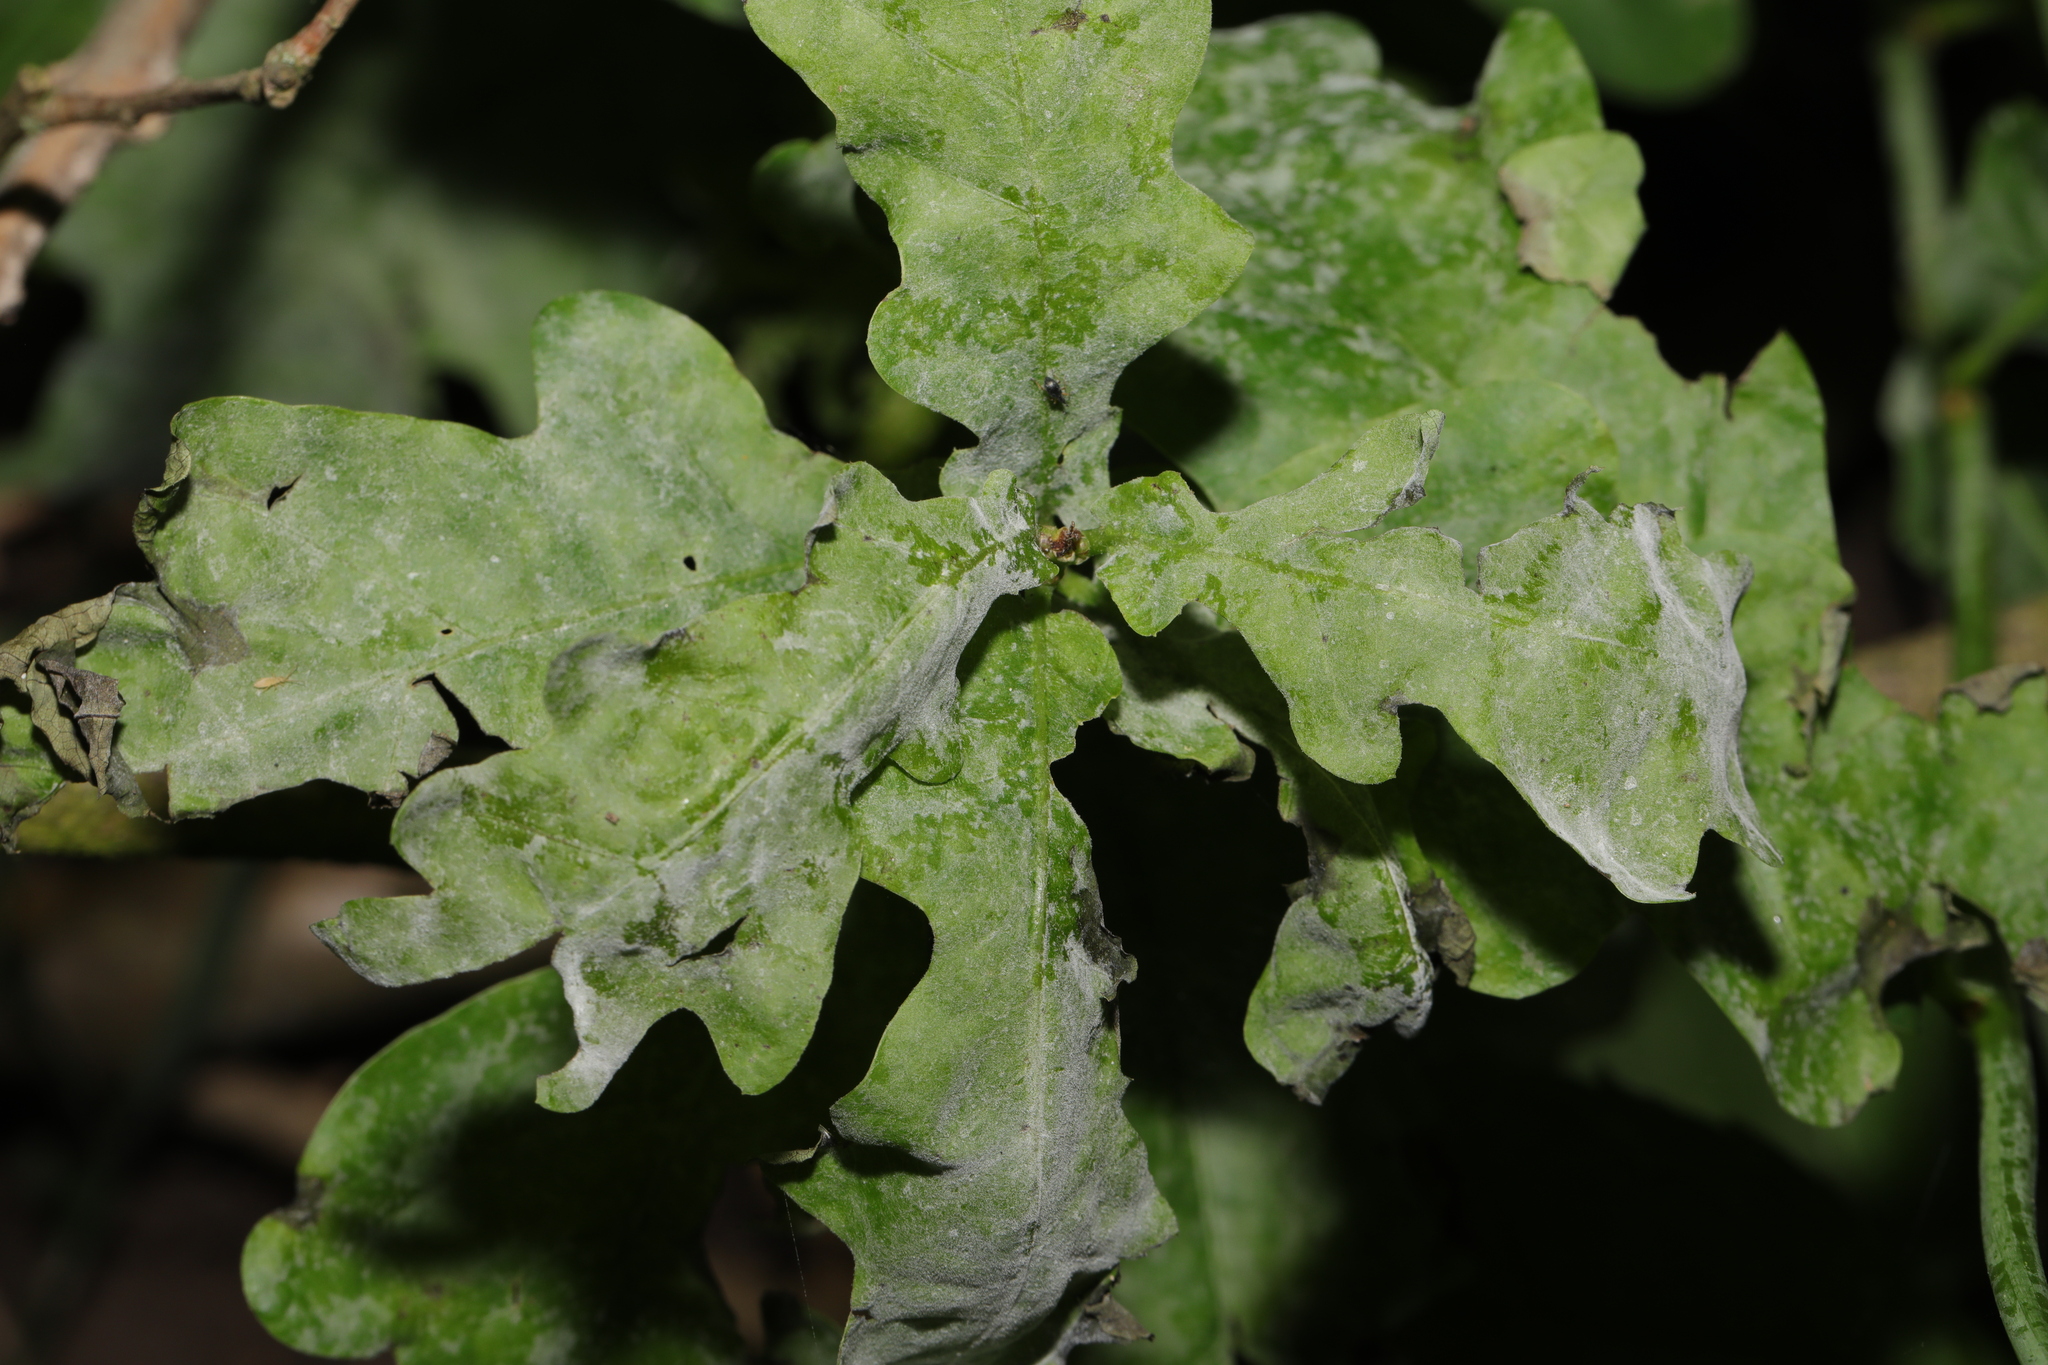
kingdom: Fungi
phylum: Ascomycota
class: Leotiomycetes
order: Helotiales
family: Erysiphaceae
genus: Erysiphe
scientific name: Erysiphe alphitoides
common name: Oak mildew
